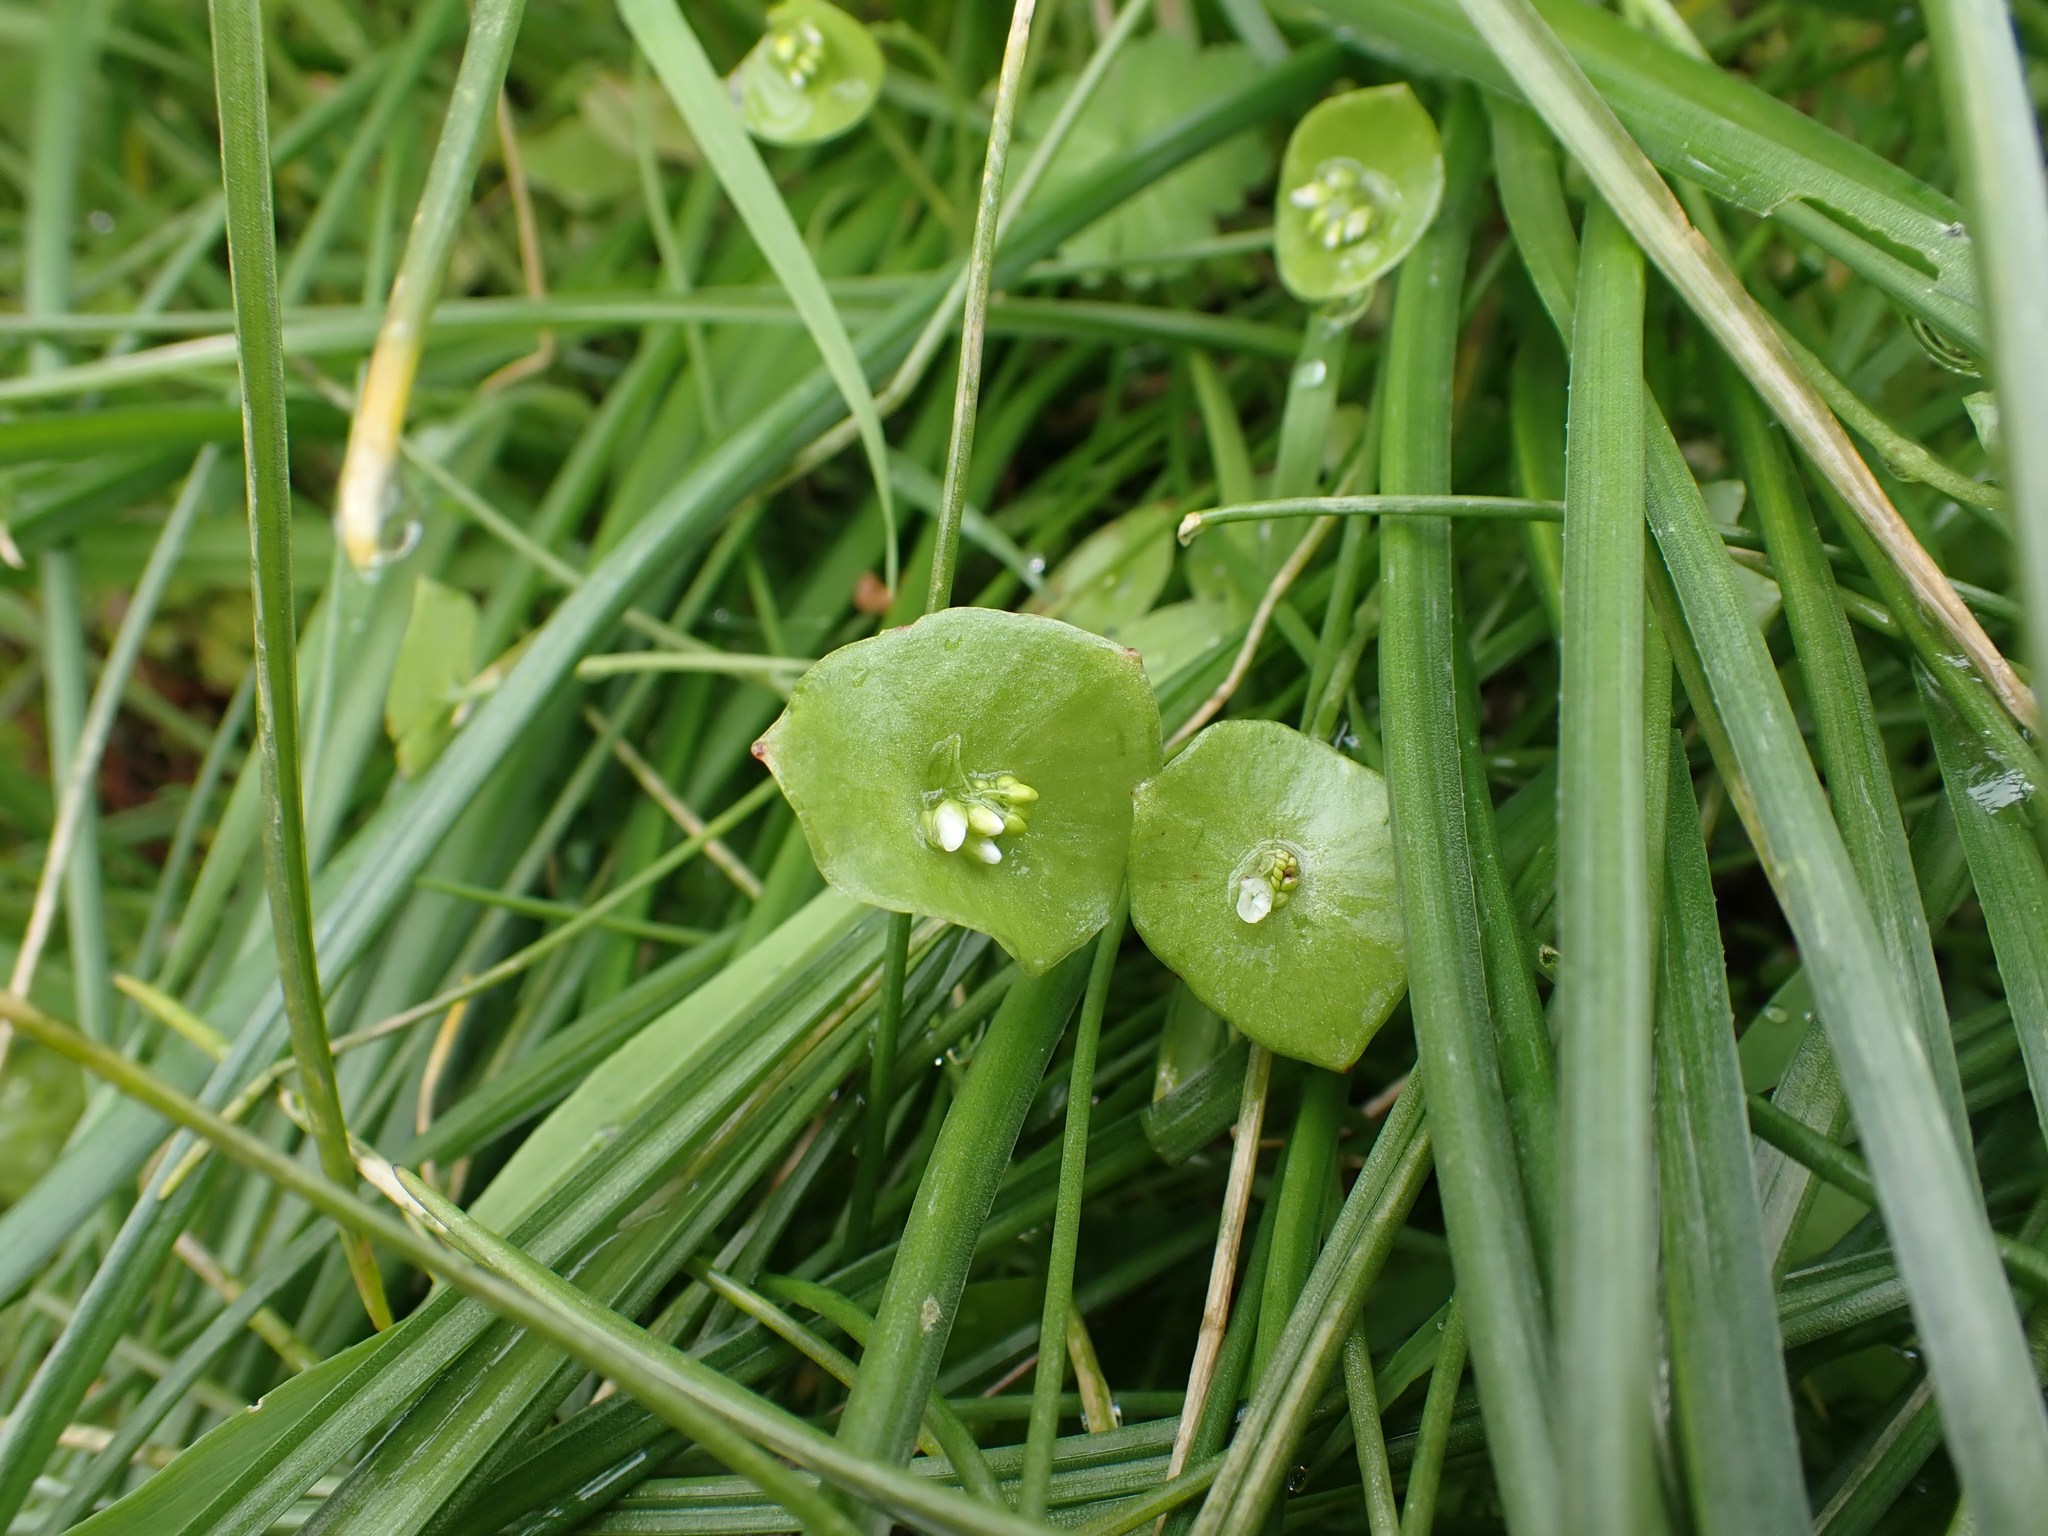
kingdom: Plantae
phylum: Tracheophyta
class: Magnoliopsida
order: Caryophyllales
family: Montiaceae
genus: Claytonia
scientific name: Claytonia perfoliata
